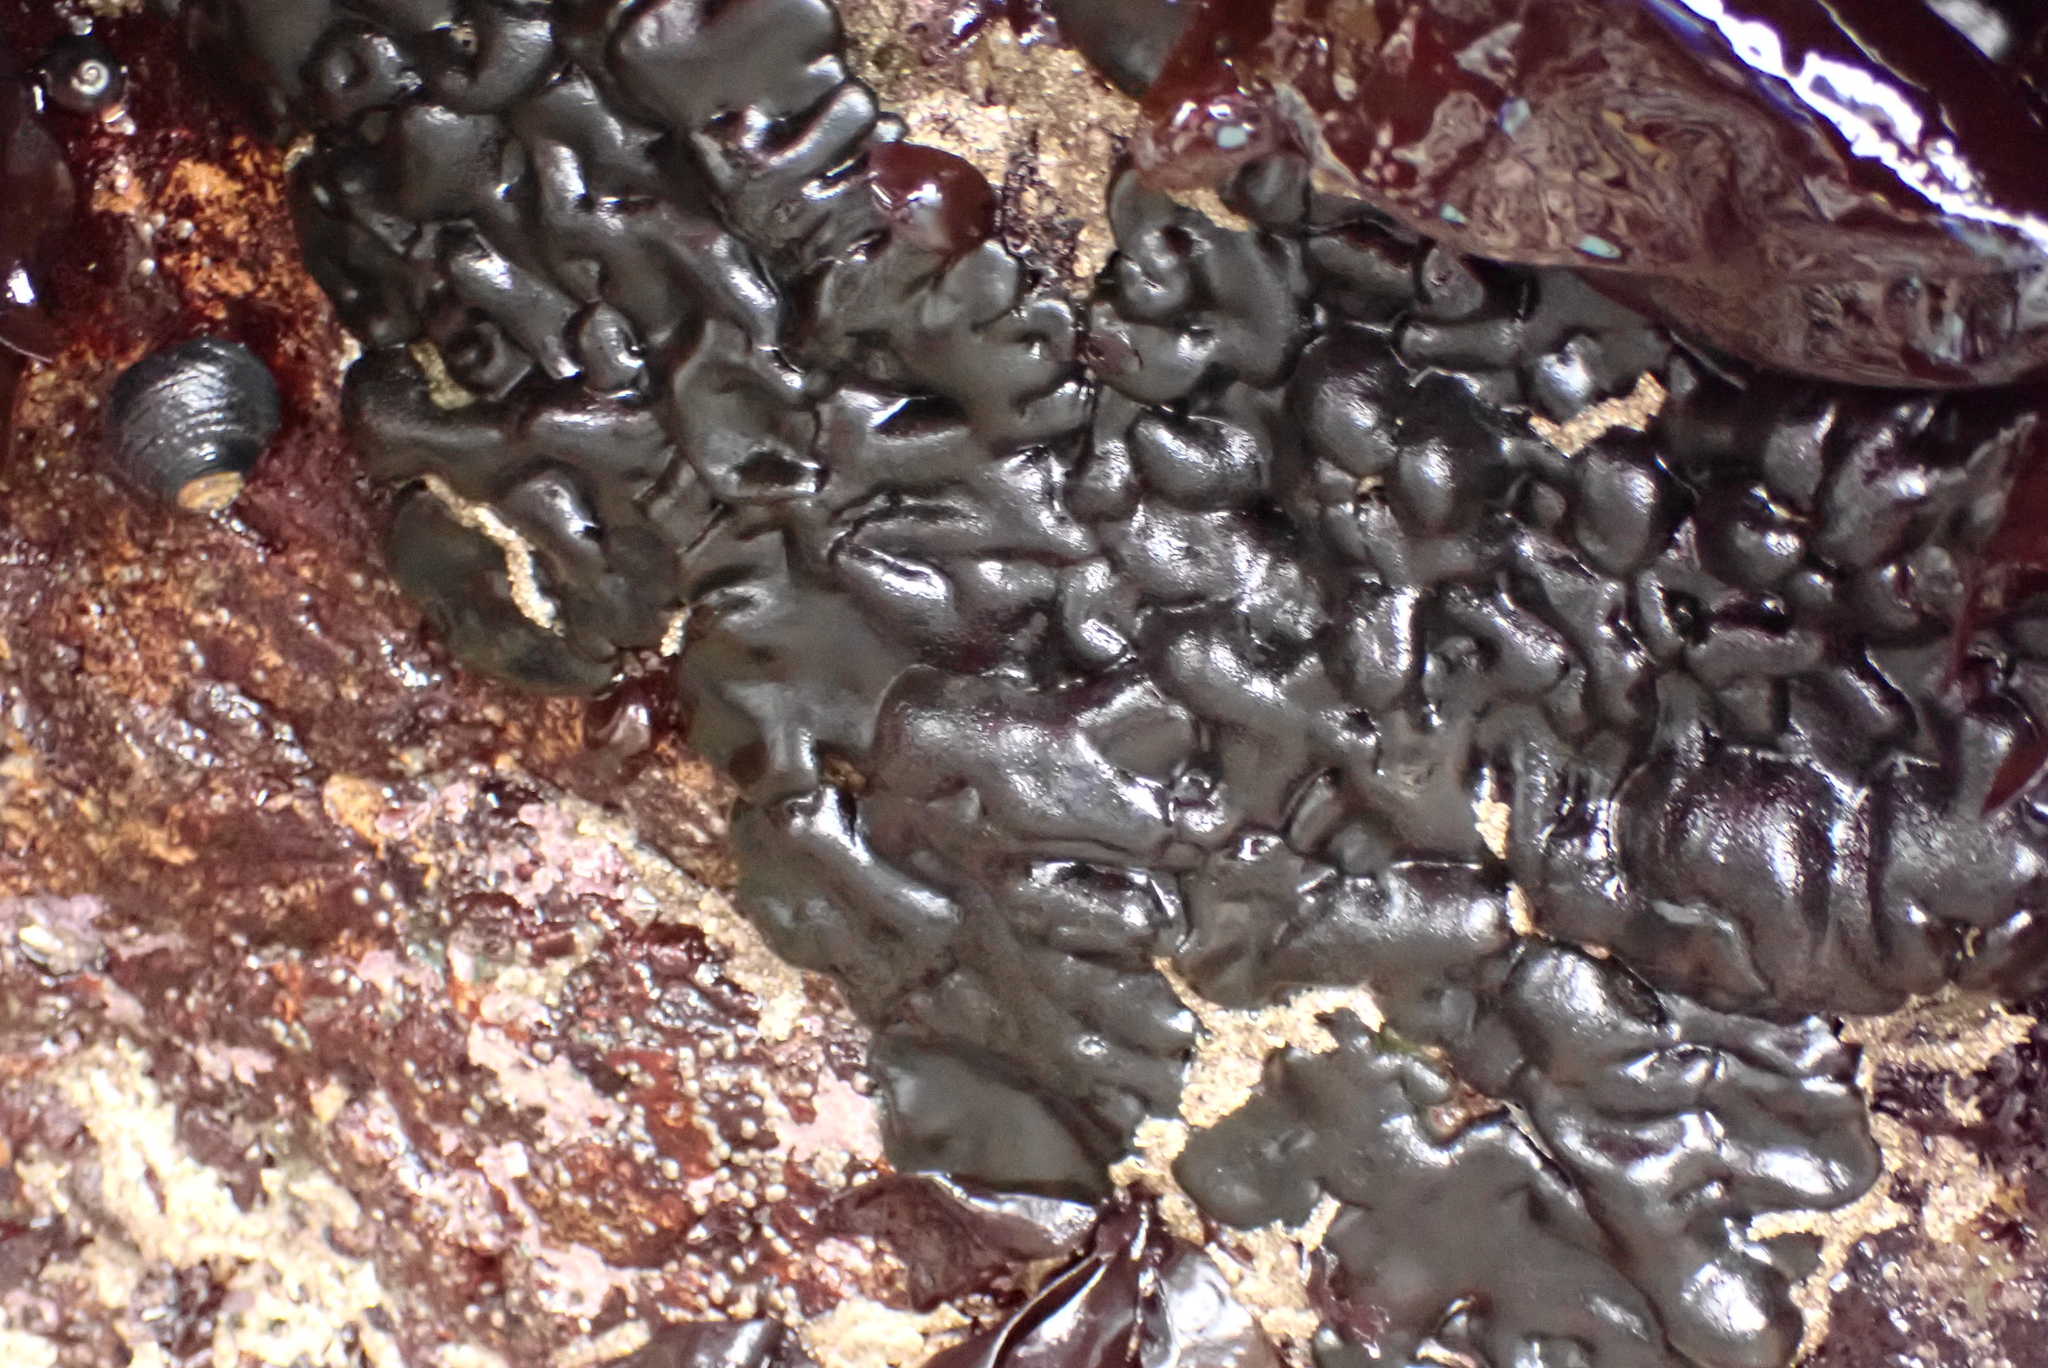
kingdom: Plantae
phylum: Chlorophyta
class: Ulvophyceae
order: Bryopsidales
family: Codiaceae
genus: Codium
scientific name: Codium setchellii
